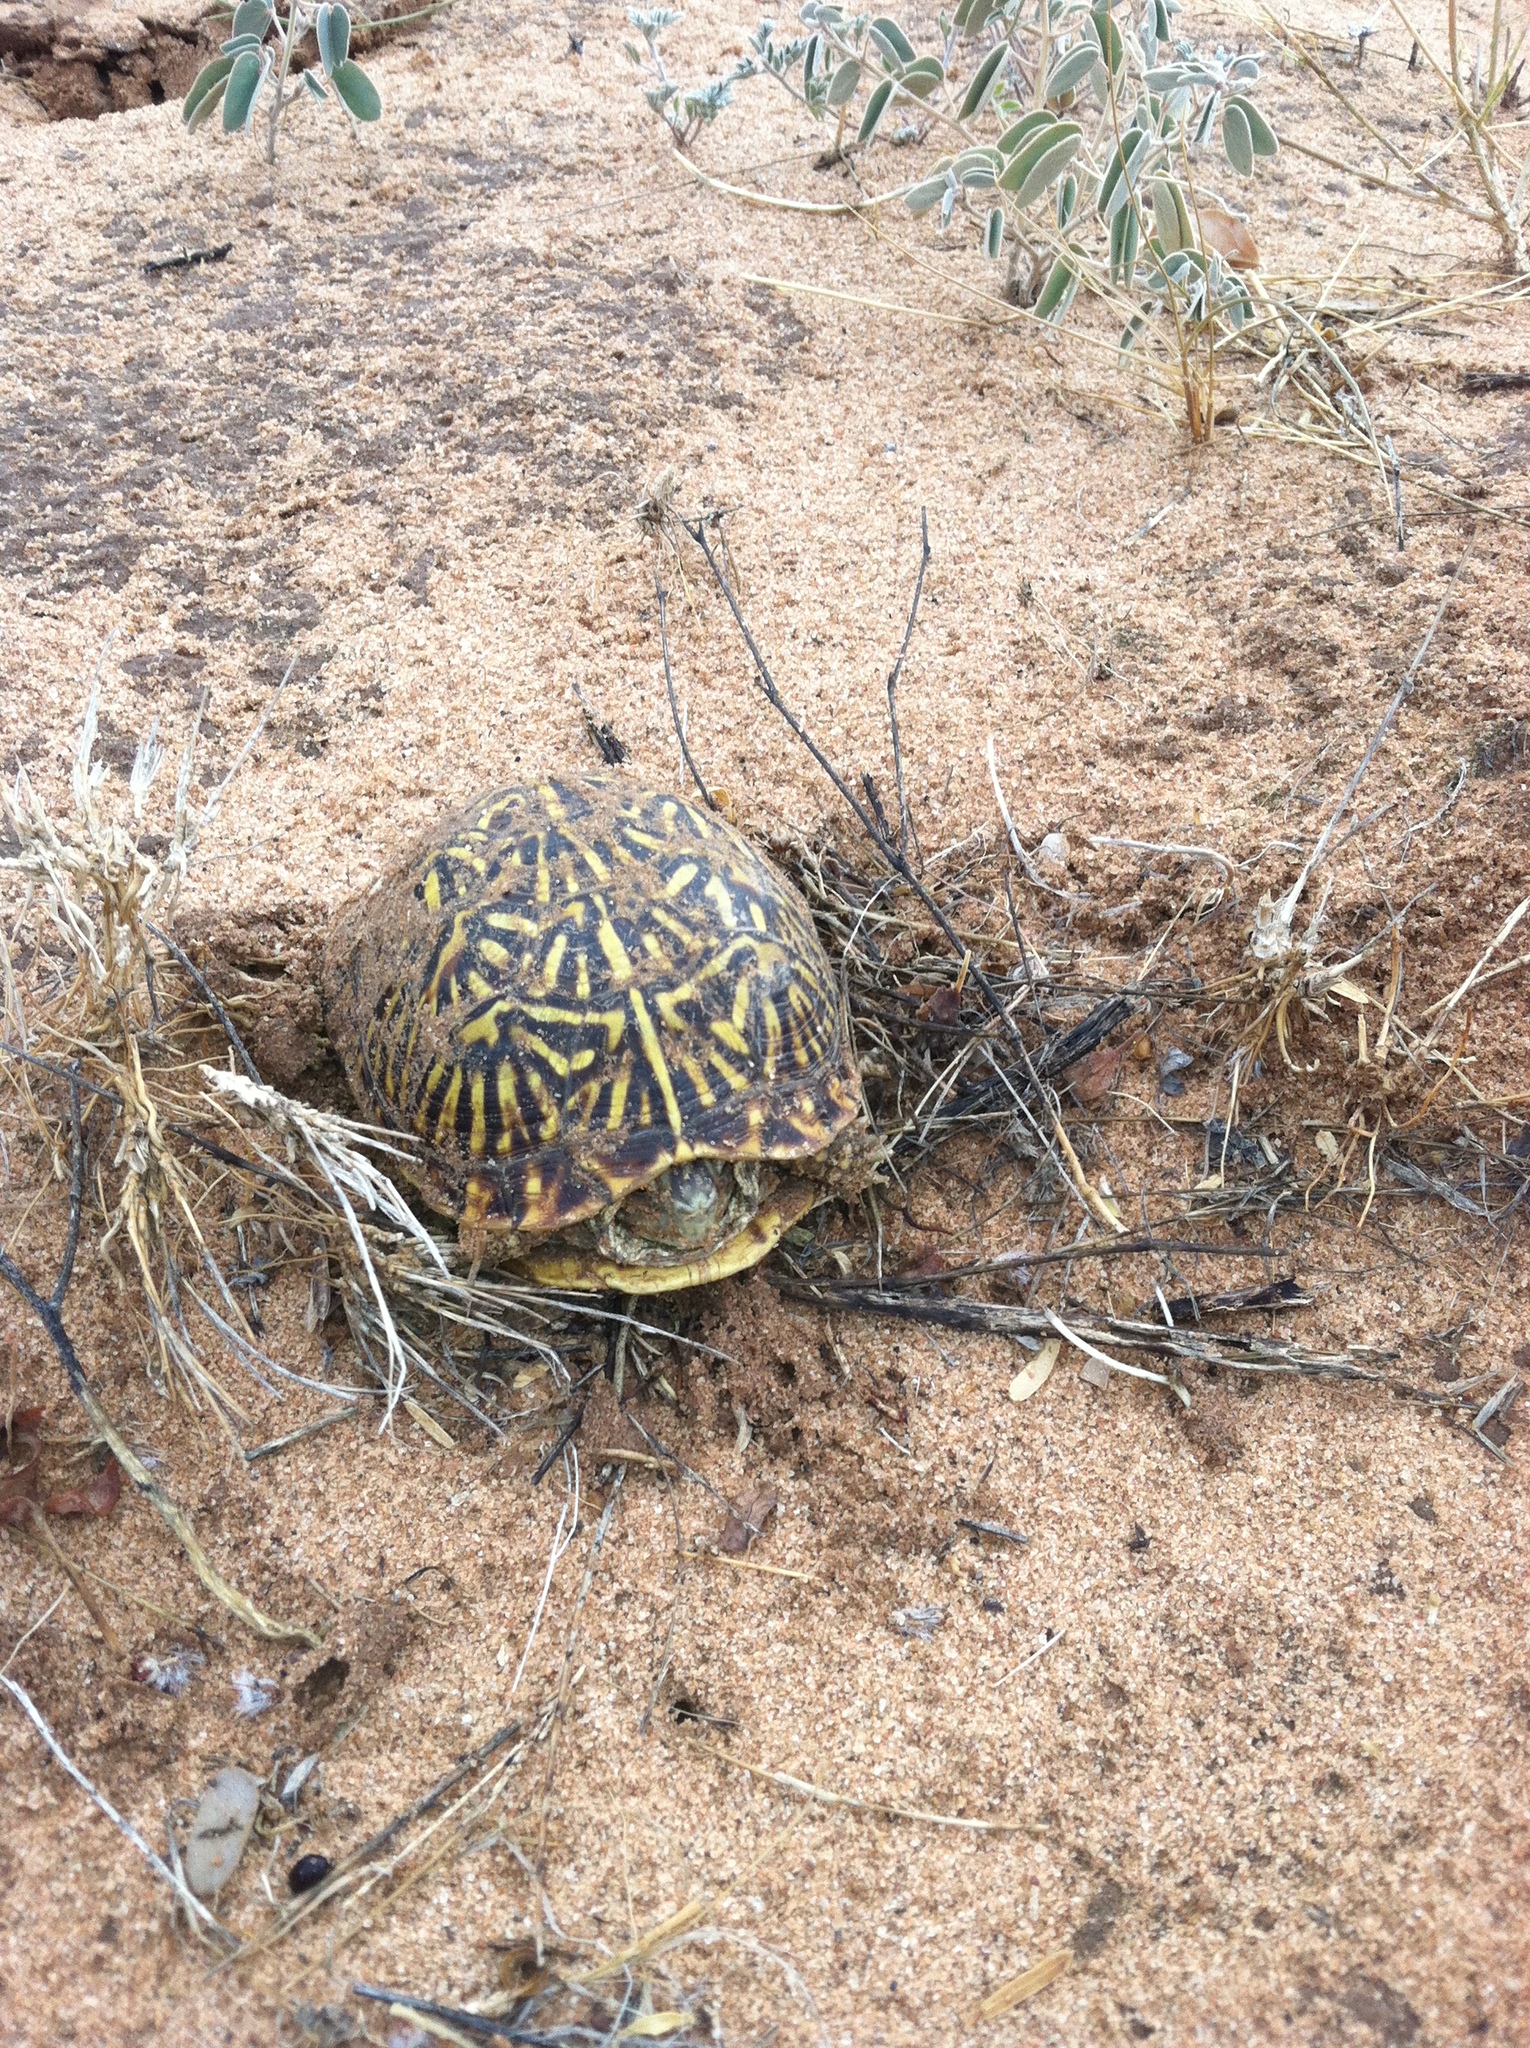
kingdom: Animalia
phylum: Chordata
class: Testudines
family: Emydidae
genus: Terrapene
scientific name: Terrapene ornata
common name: Western box turtle
